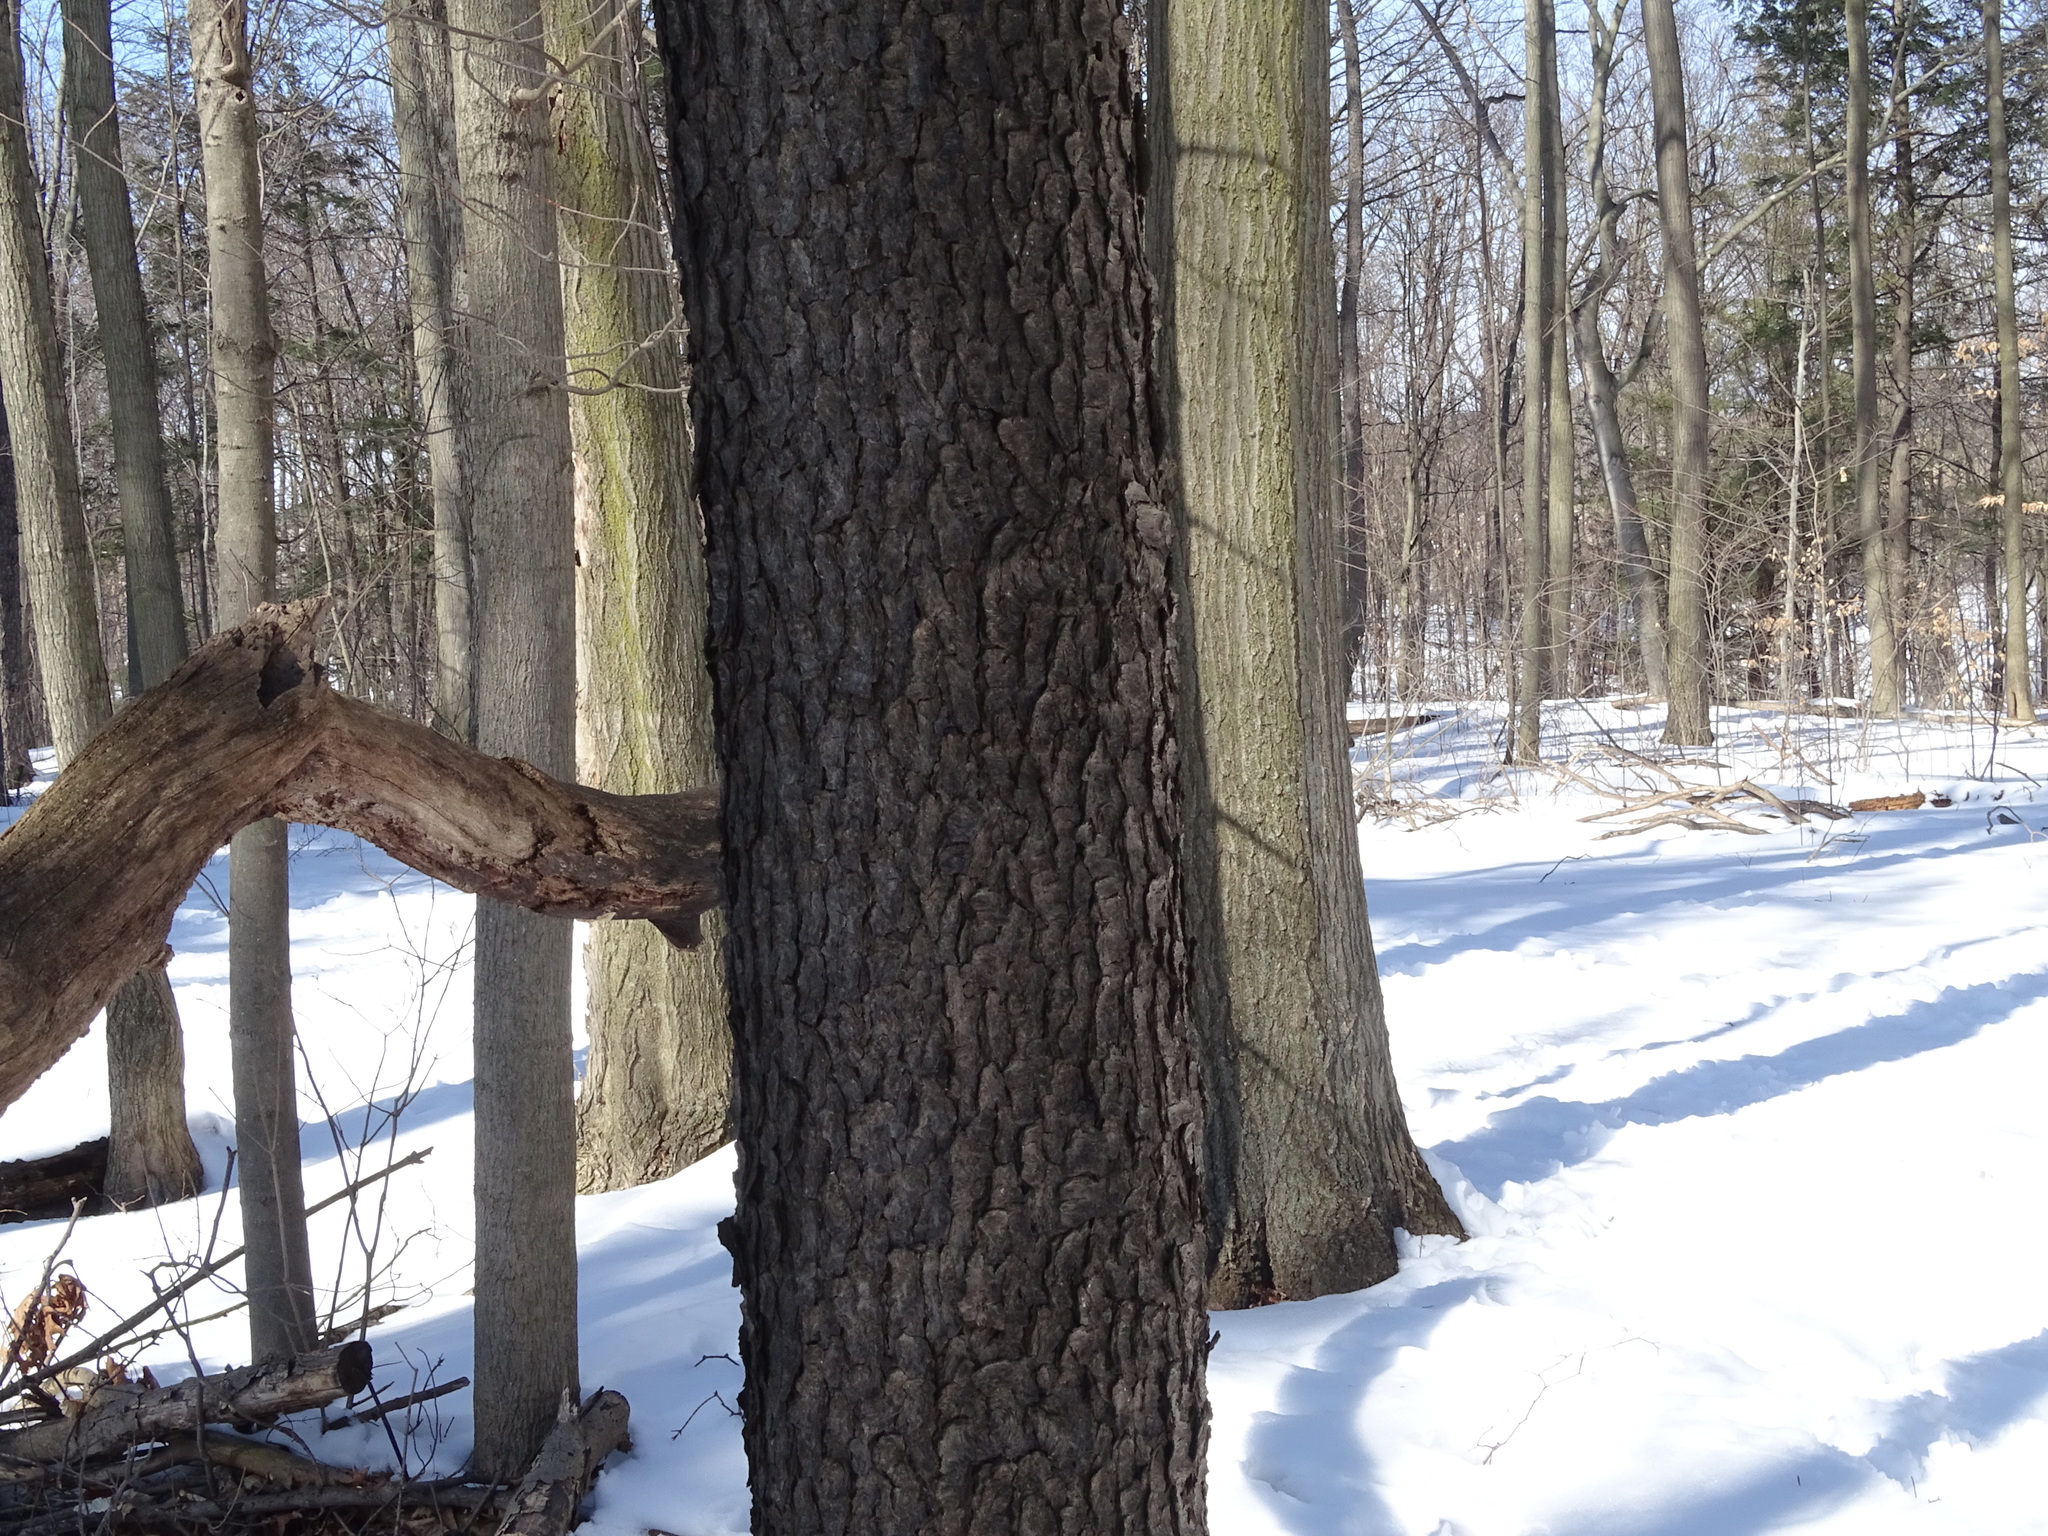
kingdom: Plantae
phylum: Tracheophyta
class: Magnoliopsida
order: Rosales
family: Rosaceae
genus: Prunus
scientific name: Prunus serotina
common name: Black cherry
